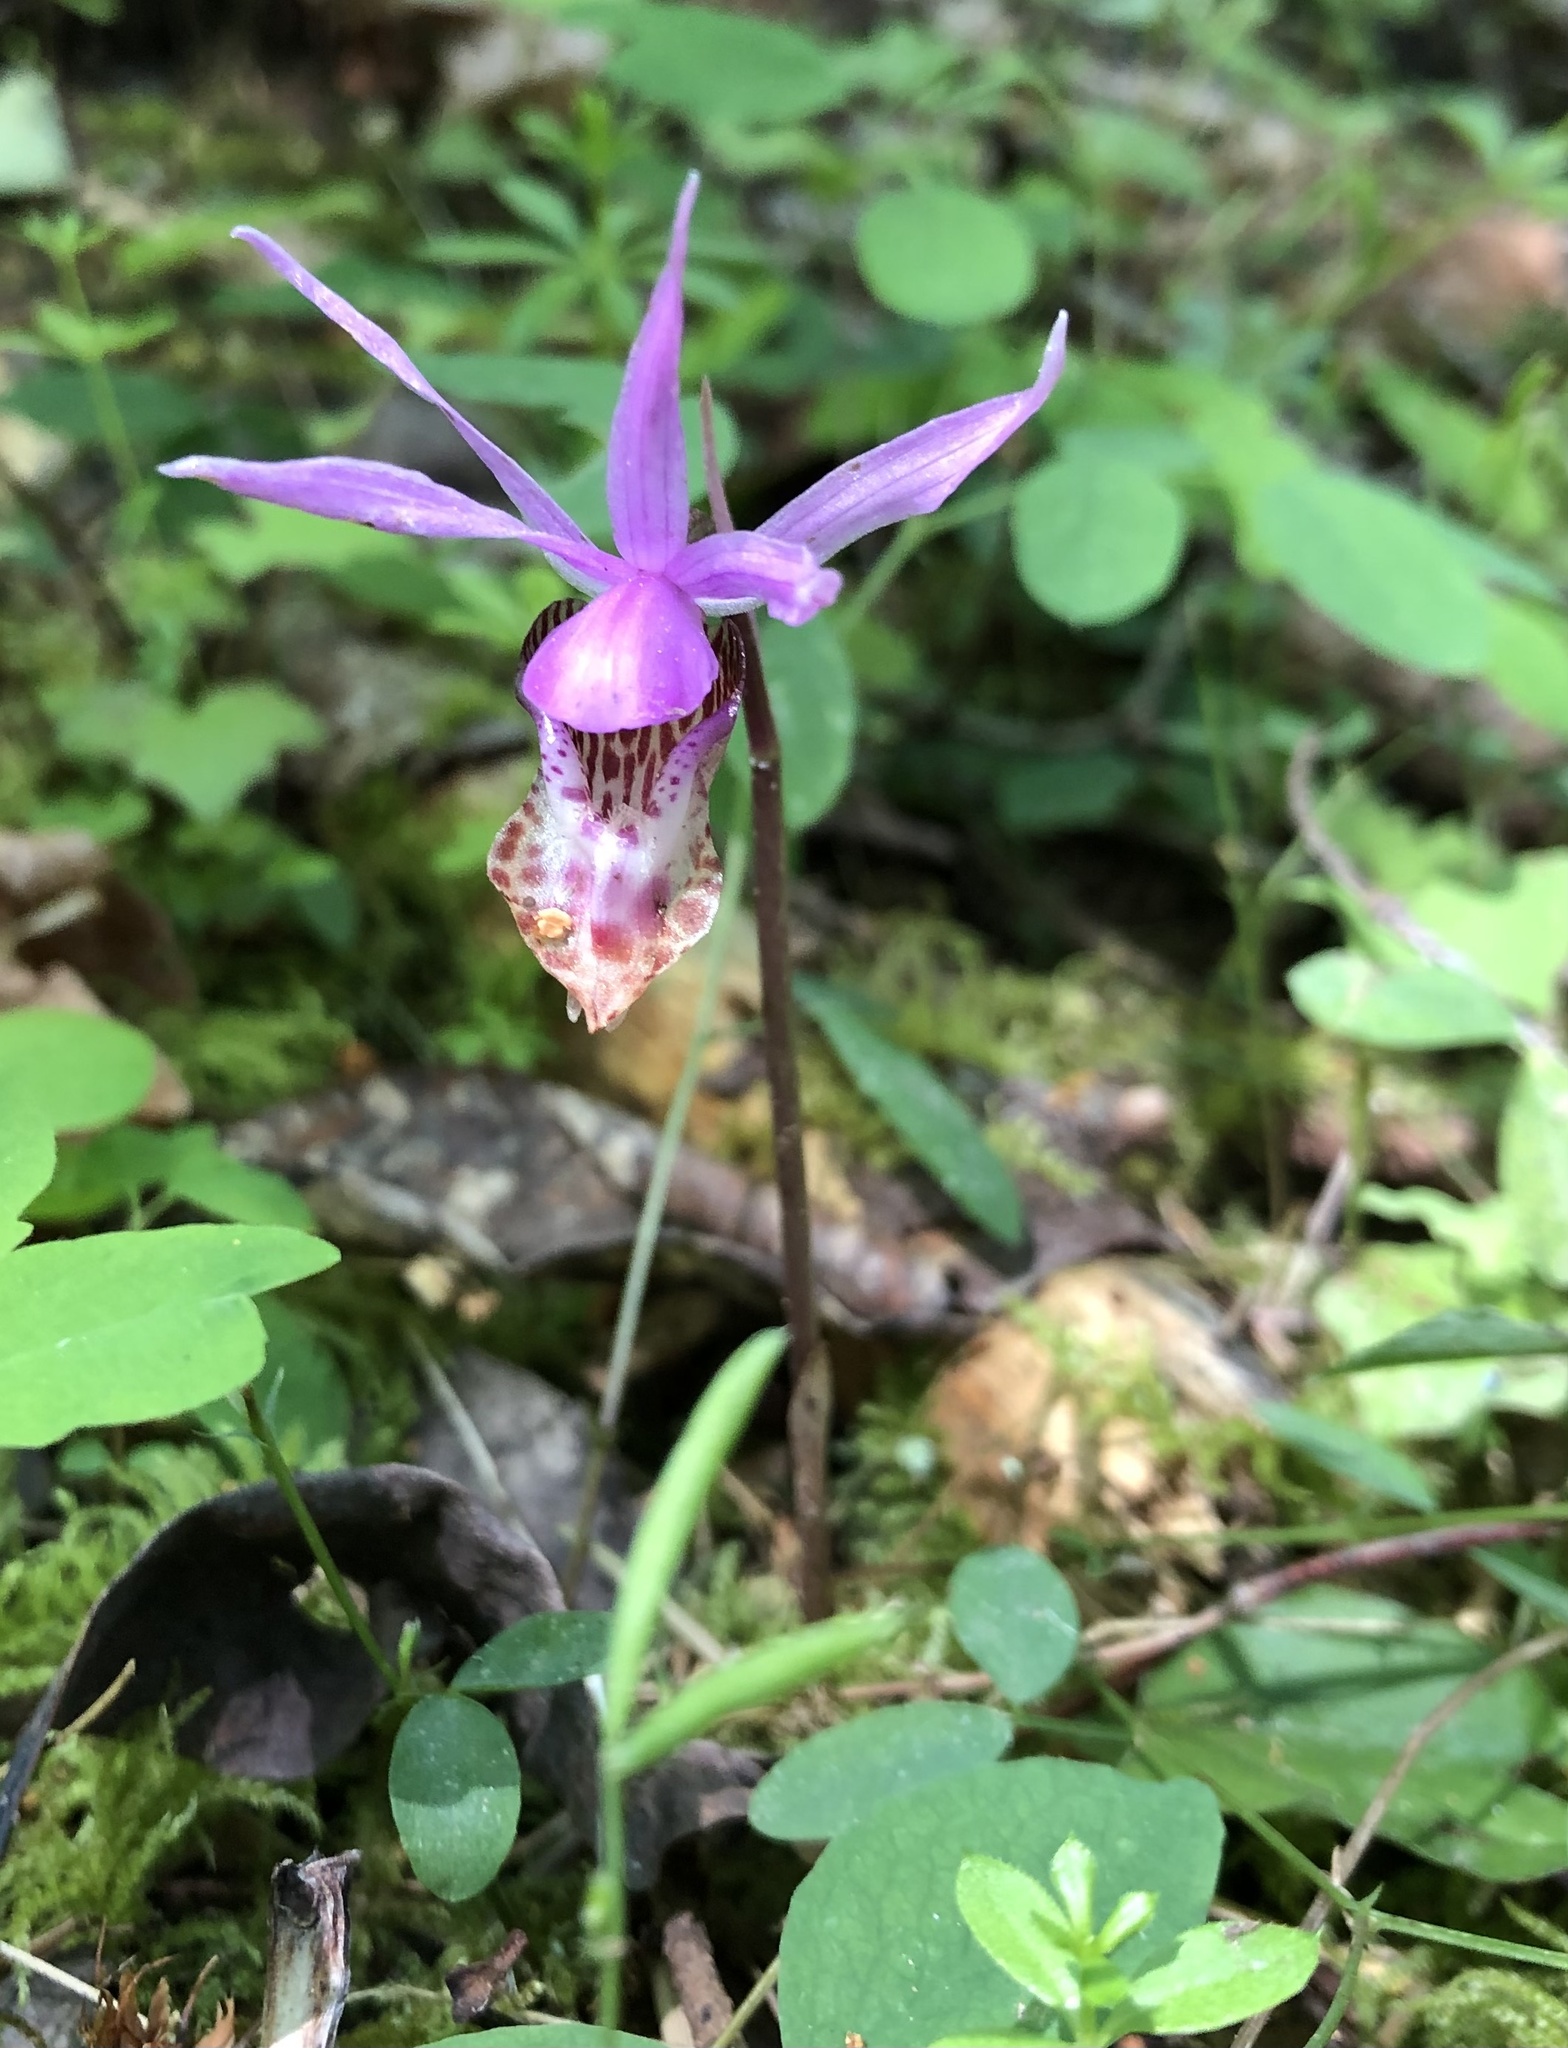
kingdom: Plantae
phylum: Tracheophyta
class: Liliopsida
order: Asparagales
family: Orchidaceae
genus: Calypso
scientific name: Calypso bulbosa
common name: Calypso
